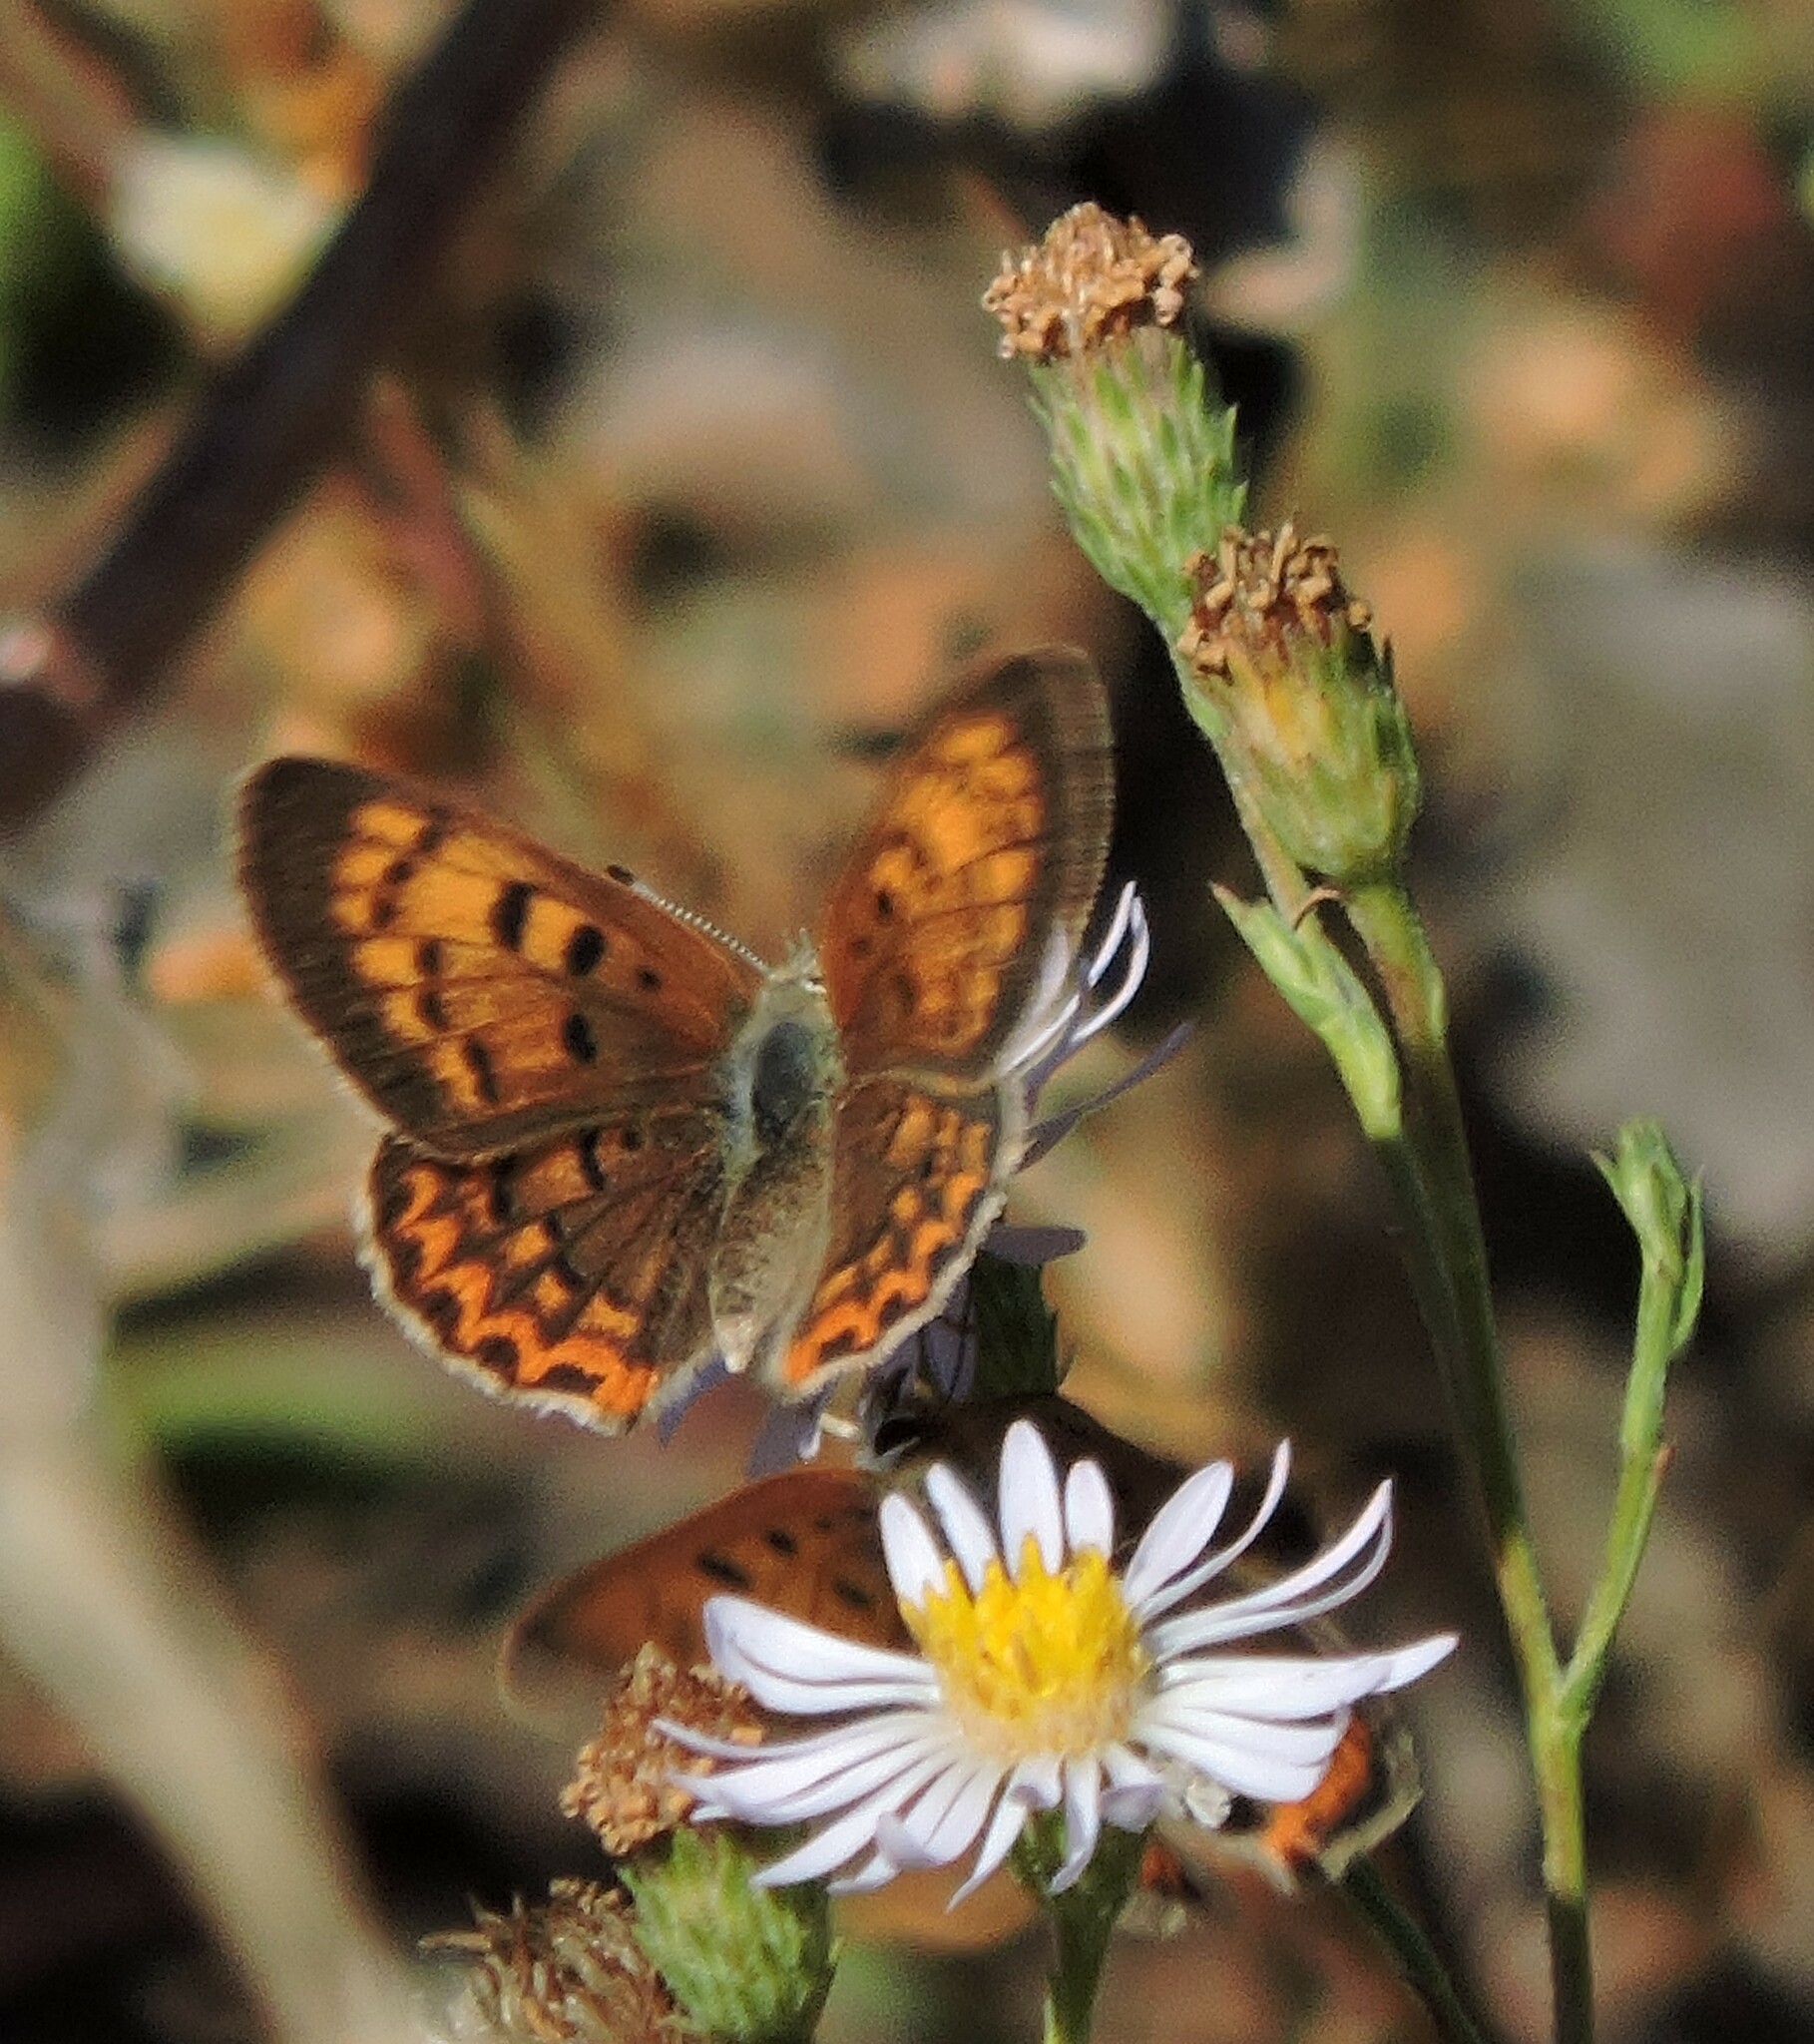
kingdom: Animalia
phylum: Arthropoda
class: Insecta
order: Lepidoptera
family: Lycaenidae
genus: Tharsalea
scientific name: Tharsalea helloides
